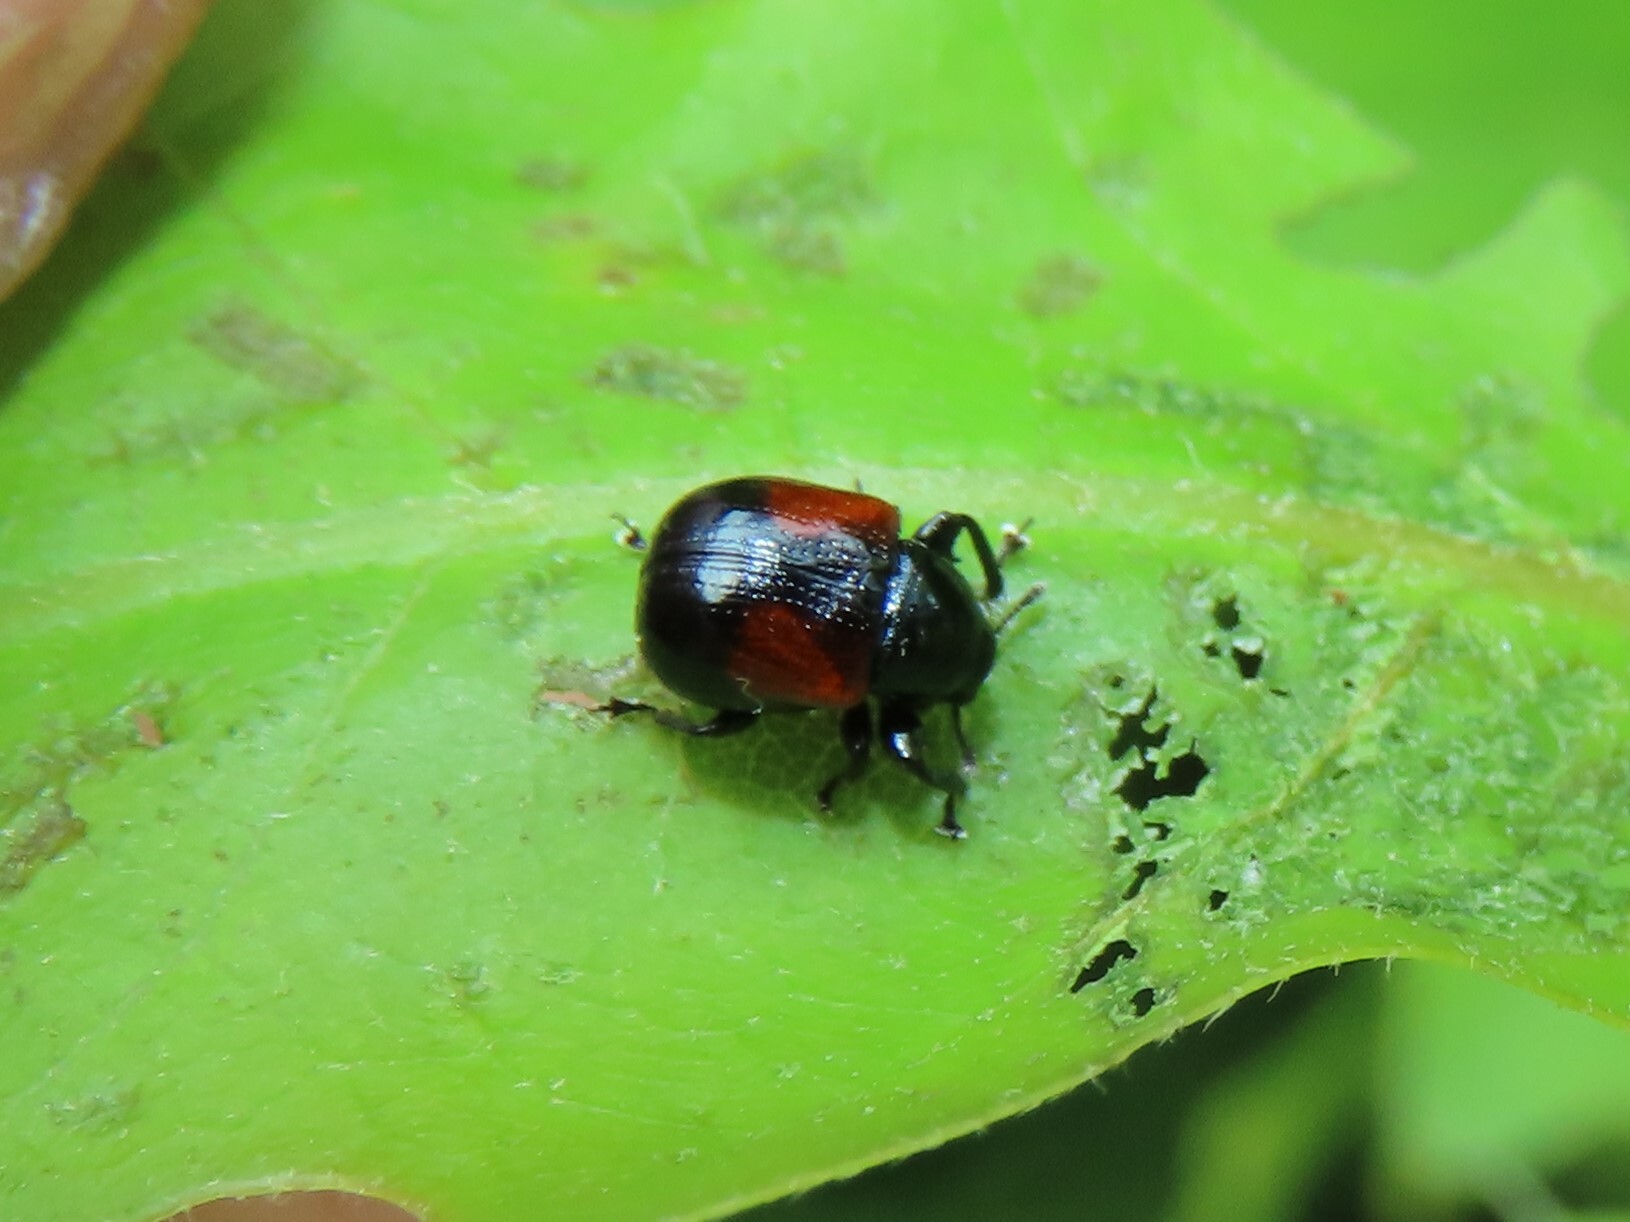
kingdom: Animalia
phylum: Arthropoda
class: Insecta
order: Coleoptera
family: Attelabidae
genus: Attelabus
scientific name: Attelabus bipustulatus
